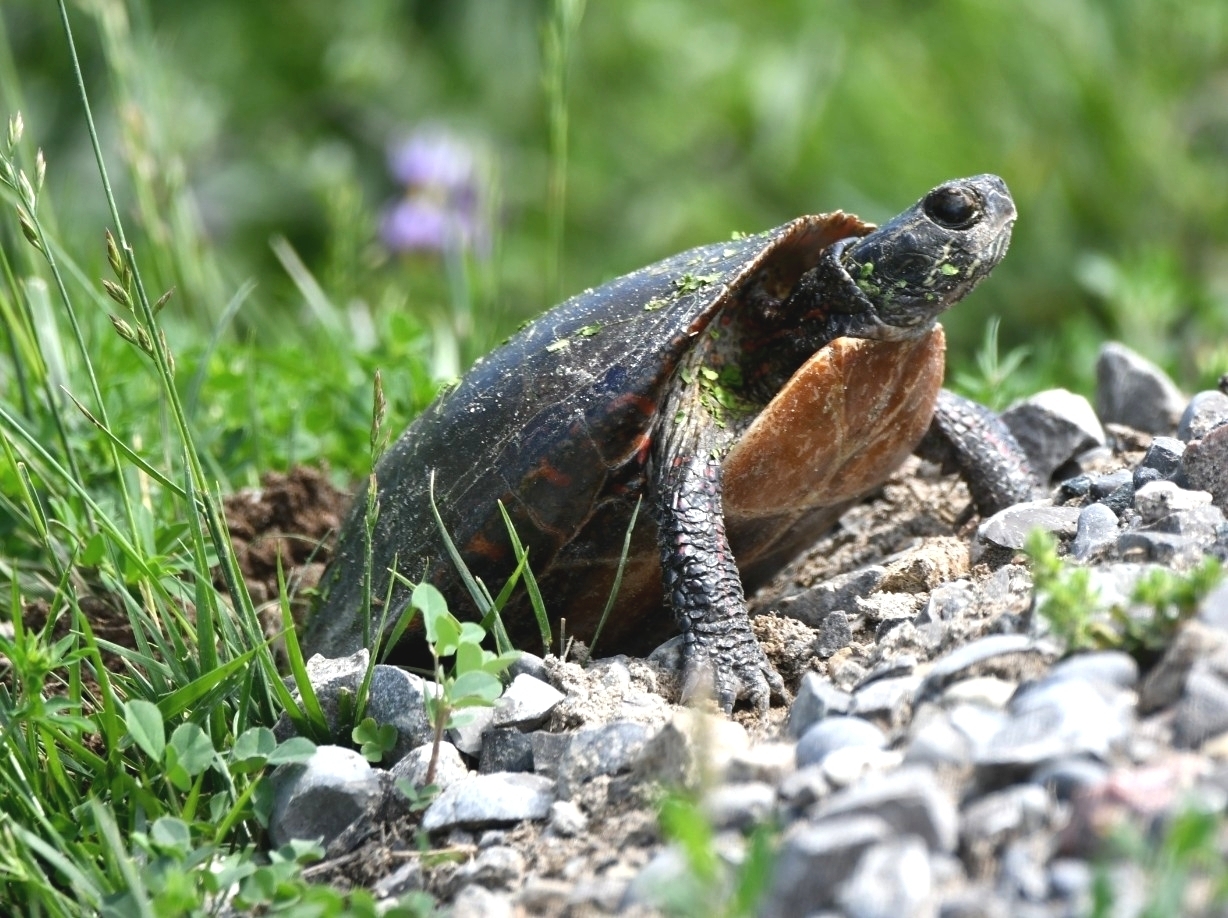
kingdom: Animalia
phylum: Chordata
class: Testudines
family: Emydidae
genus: Chrysemys
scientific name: Chrysemys picta
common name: Painted turtle
